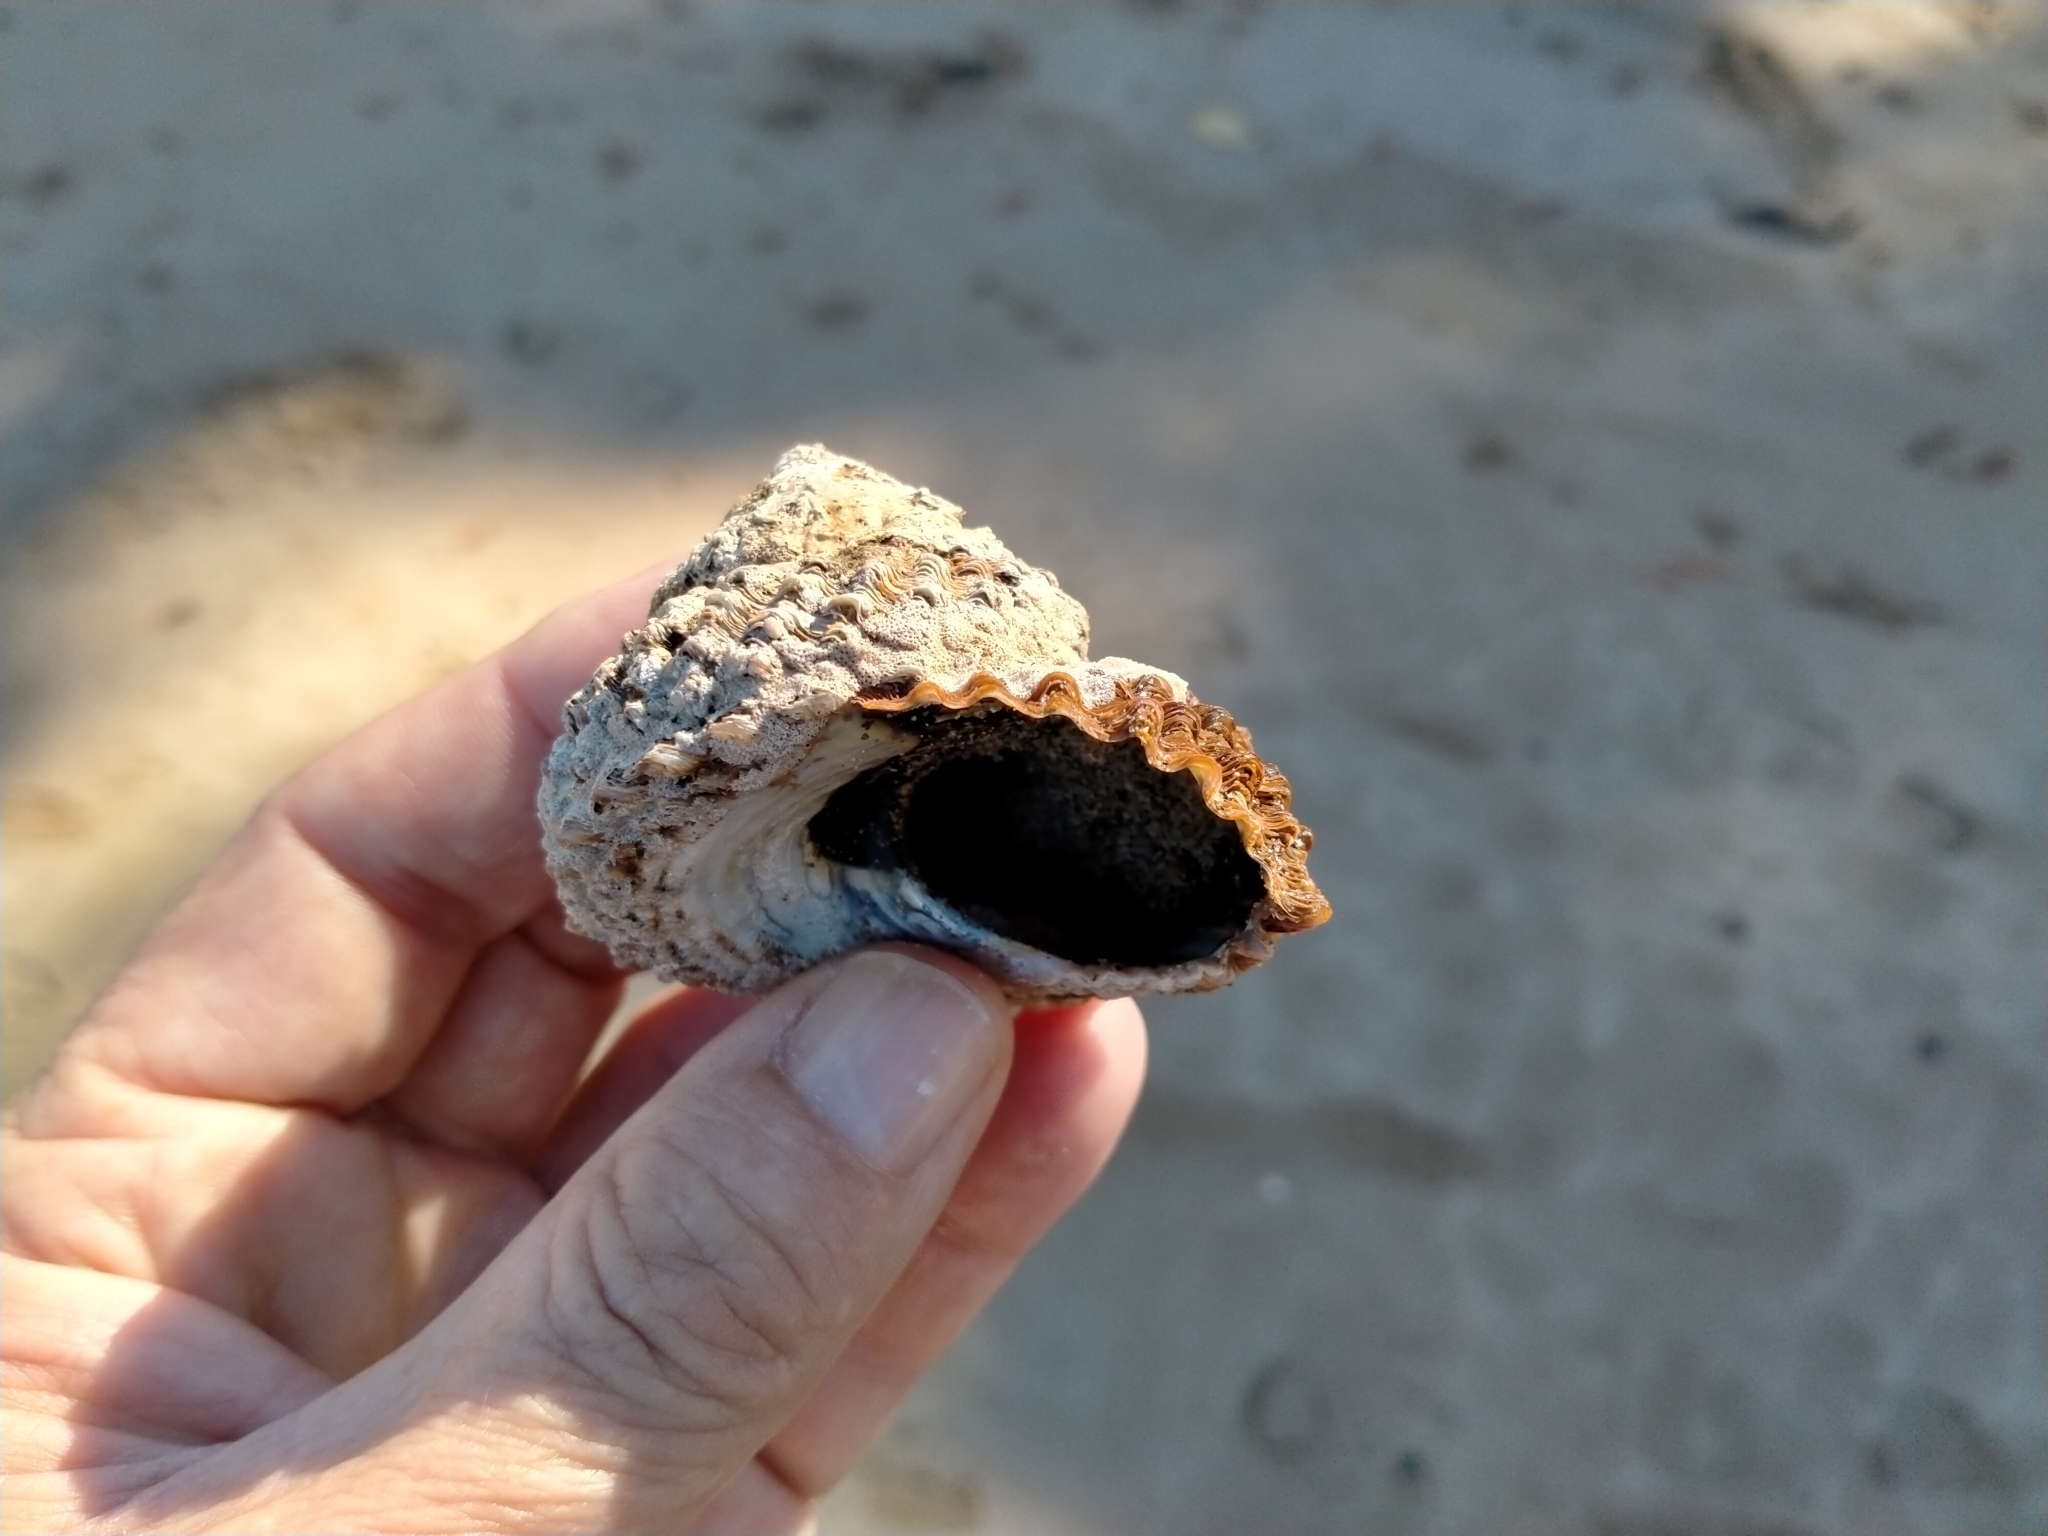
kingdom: Animalia
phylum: Mollusca
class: Gastropoda
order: Trochida
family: Turbinidae
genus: Cookia
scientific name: Cookia sulcata
